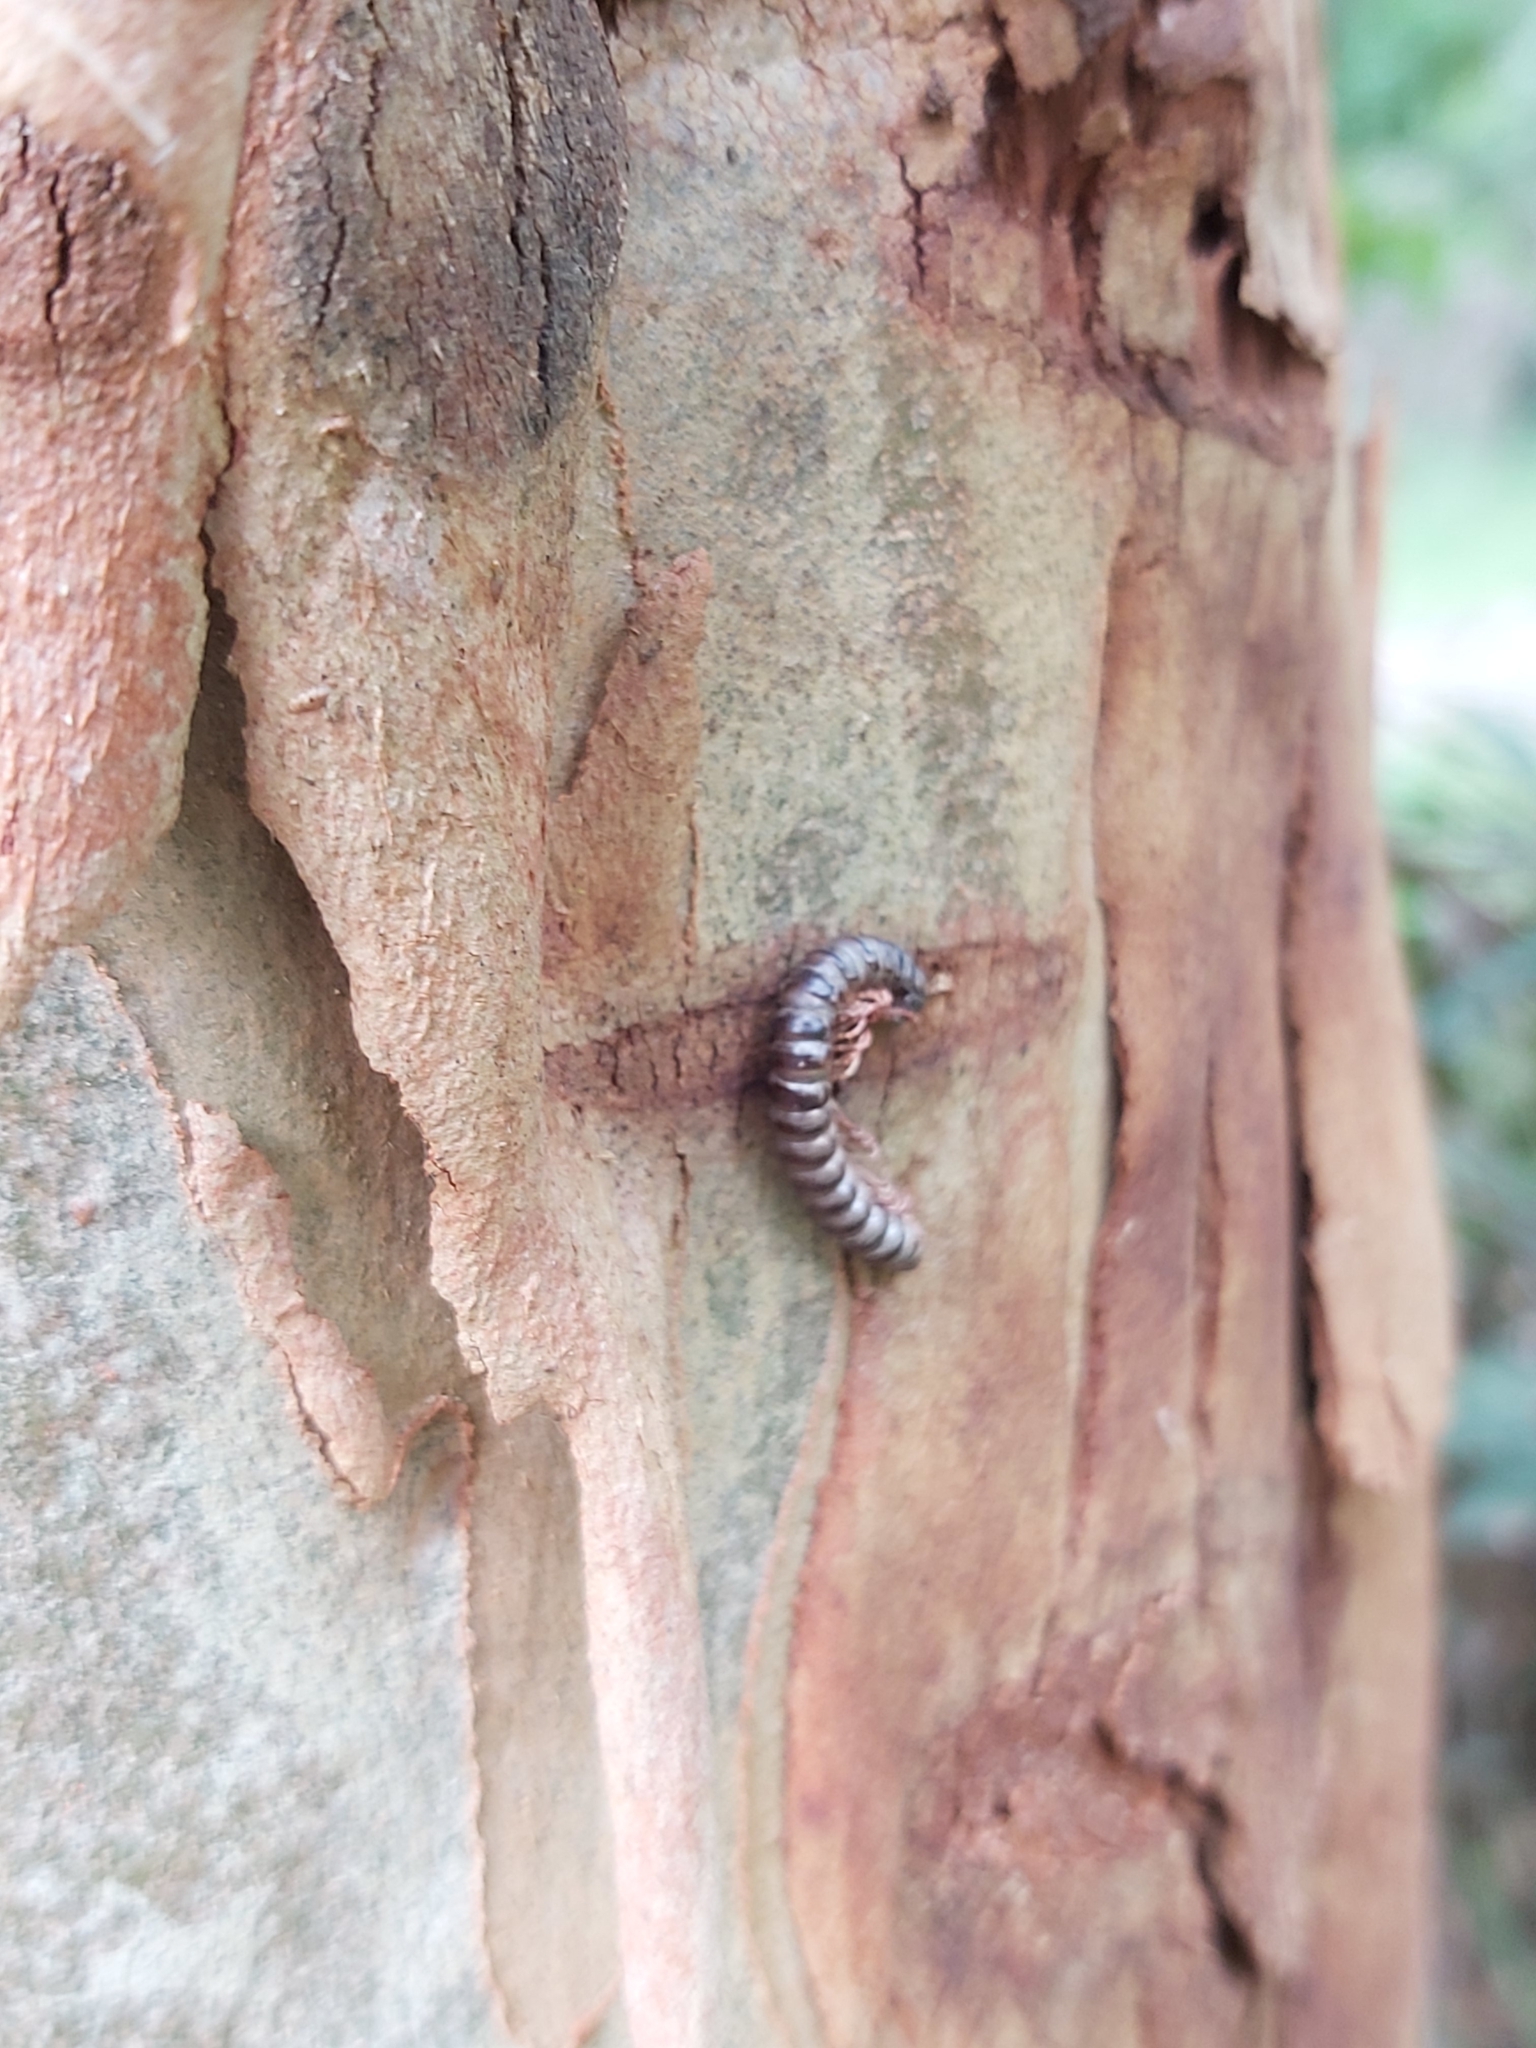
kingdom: Animalia
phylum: Arthropoda
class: Diplopoda
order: Polydesmida
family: Paradoxosomatidae
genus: Heterocladosoma
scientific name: Heterocladosoma
